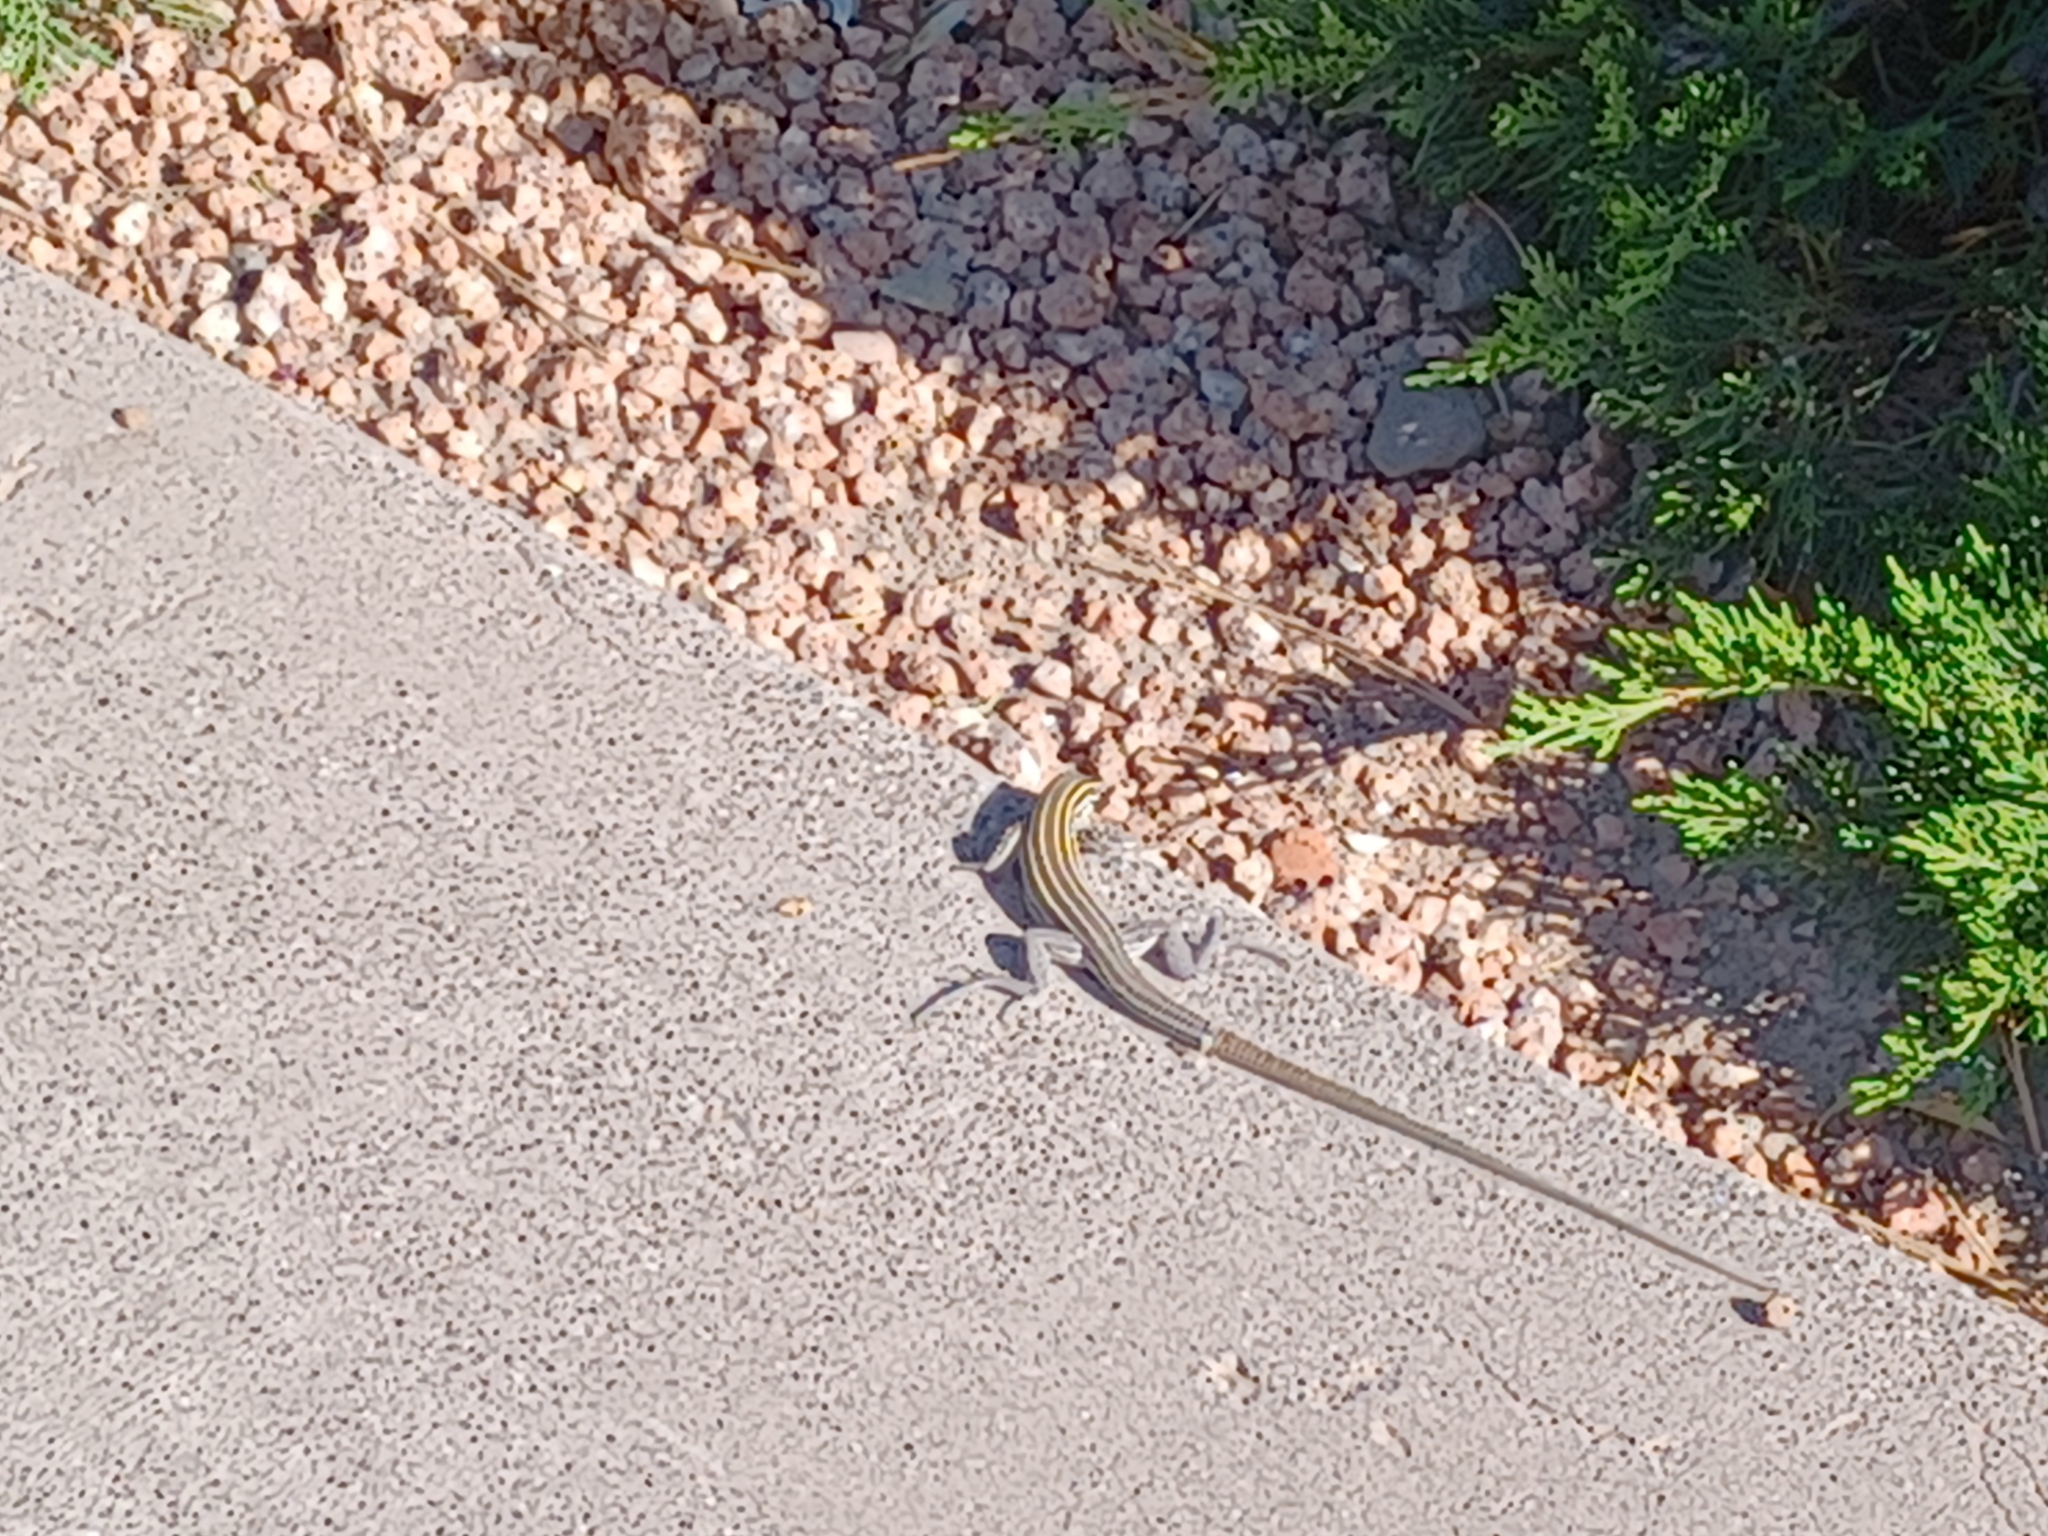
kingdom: Animalia
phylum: Chordata
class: Squamata
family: Teiidae
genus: Aspidoscelis
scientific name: Aspidoscelis uniparens
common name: Desert grassland whiptail
